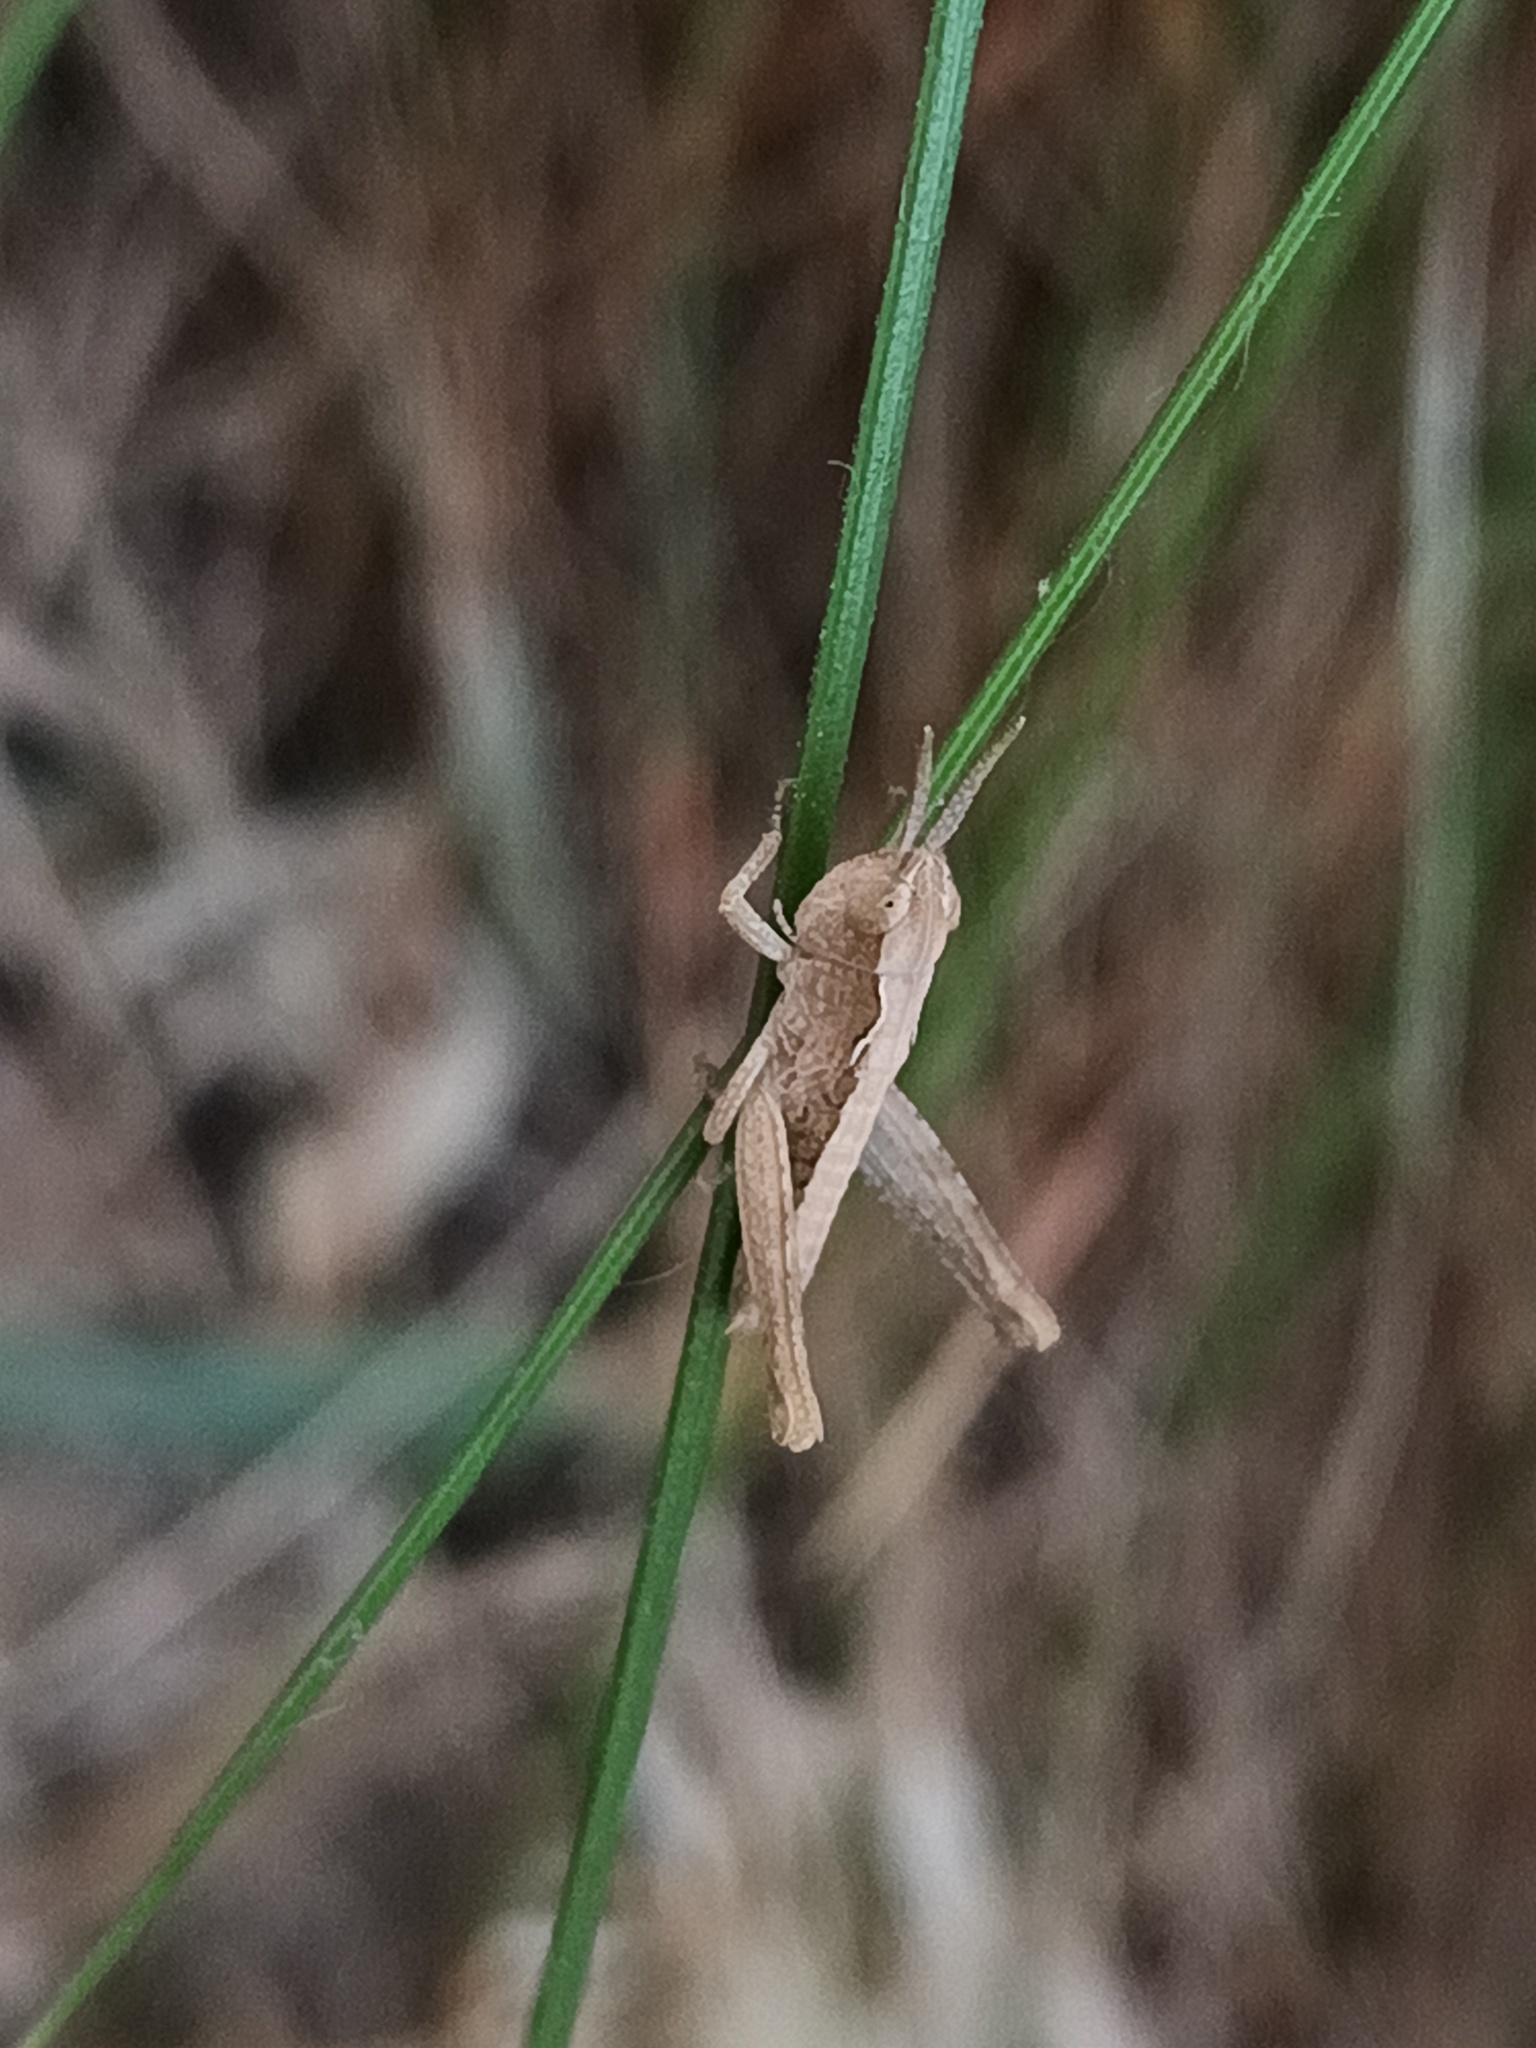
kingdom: Animalia
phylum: Arthropoda
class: Insecta
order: Orthoptera
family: Acrididae
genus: Chorthippus
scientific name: Chorthippus brunneus
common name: Field grasshopper
